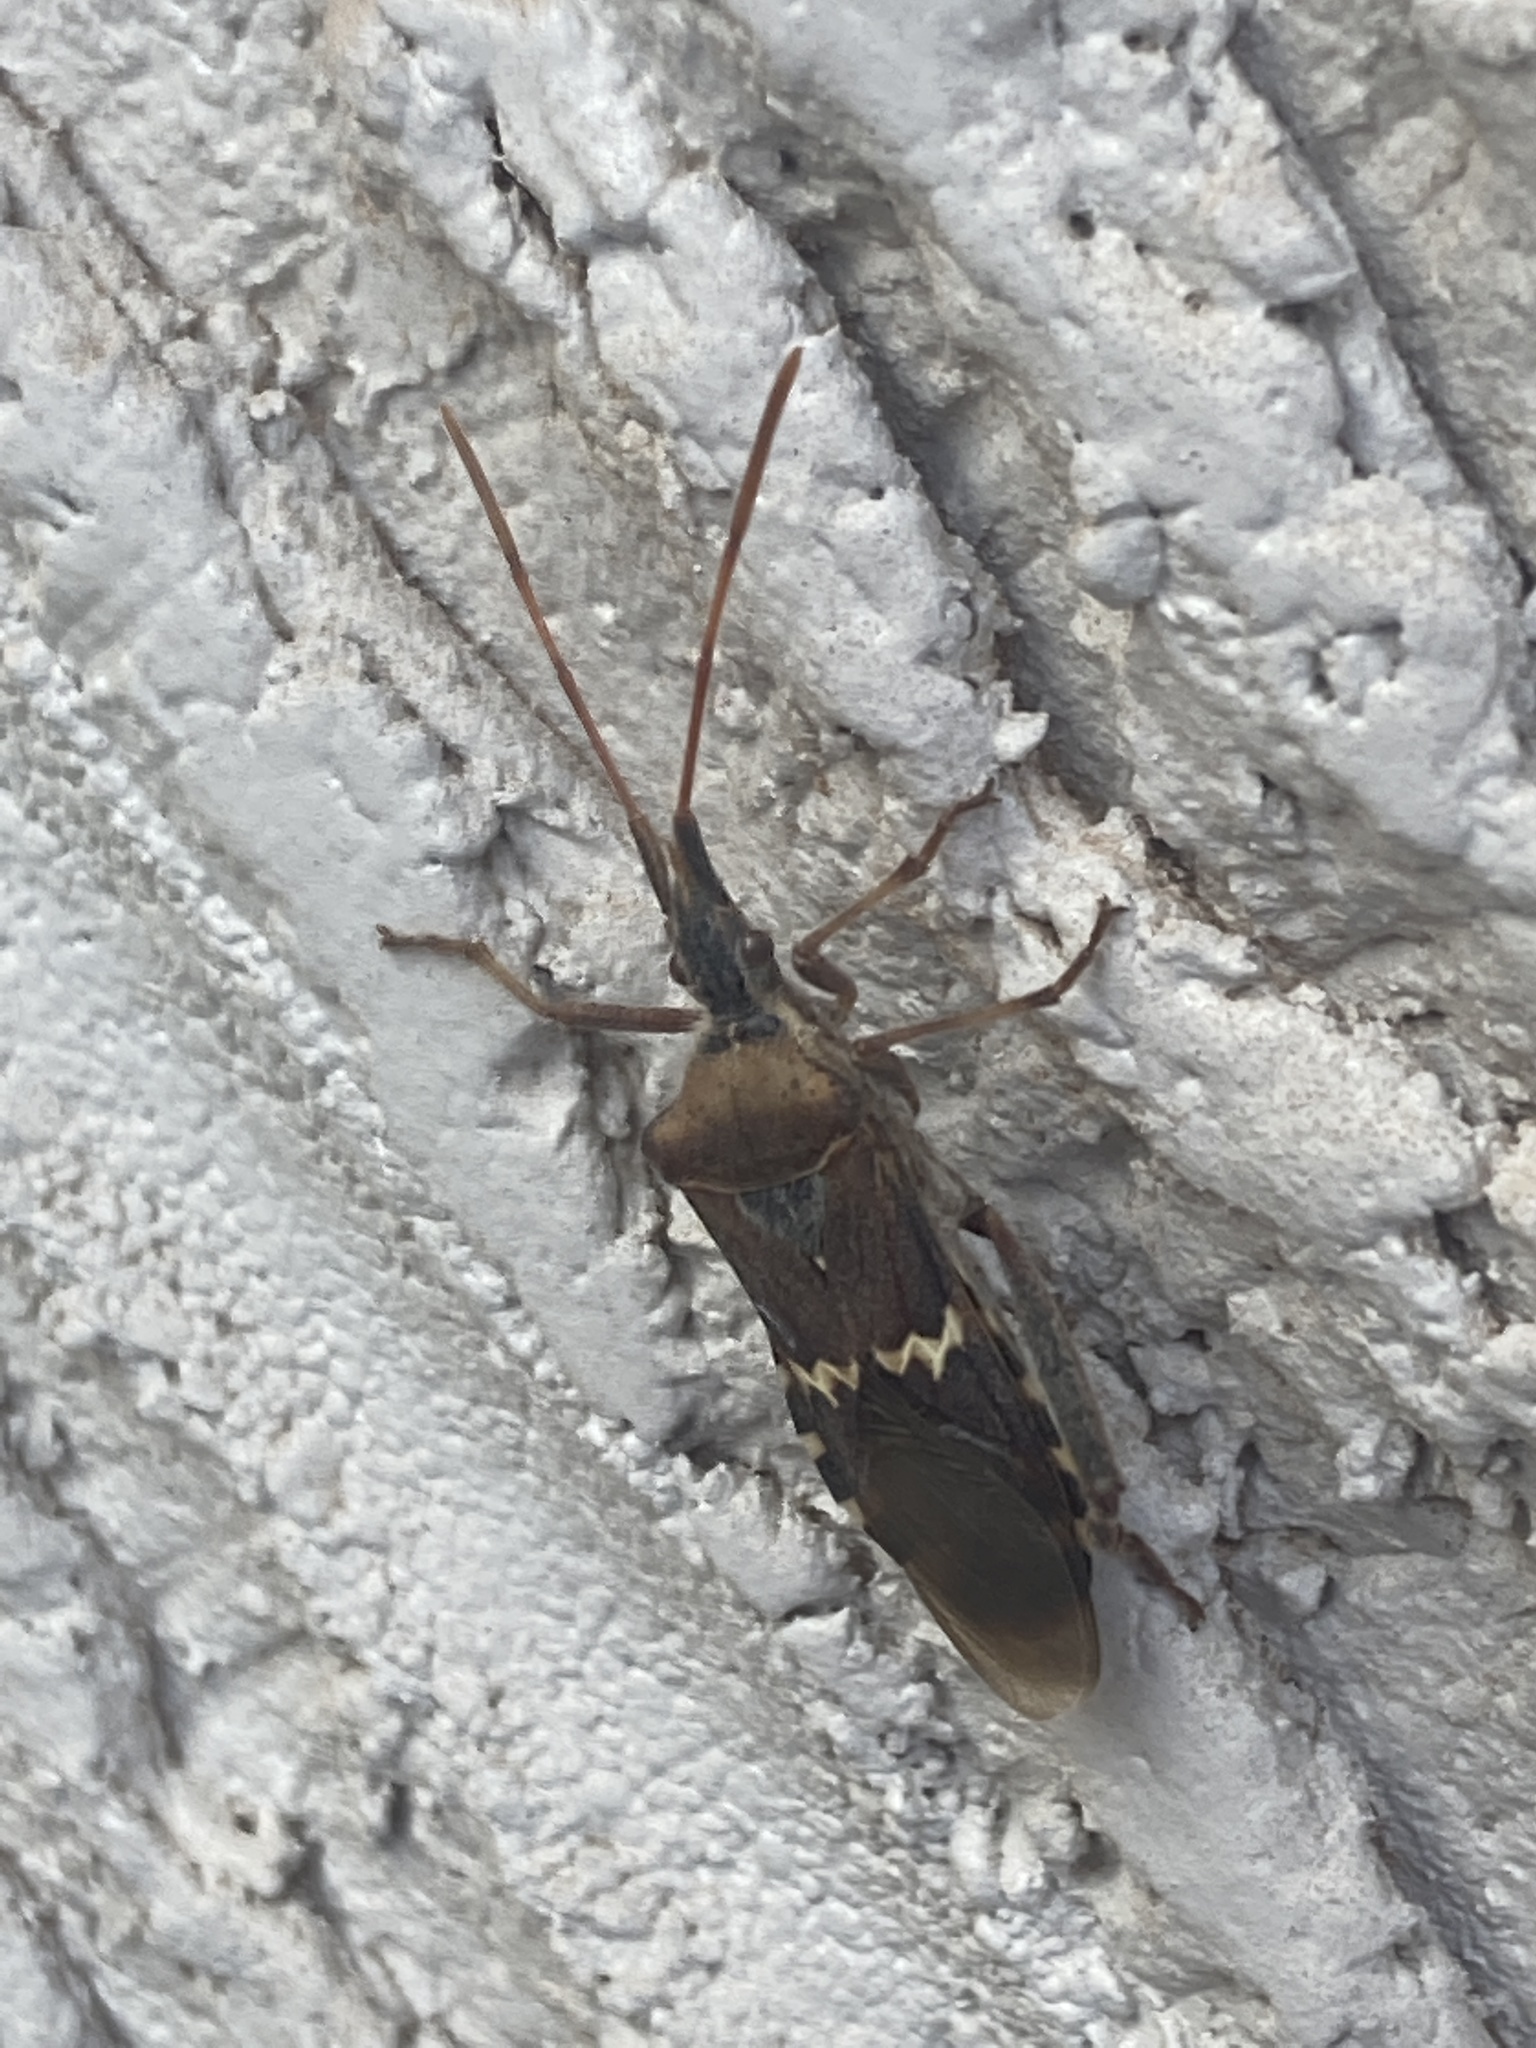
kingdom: Animalia
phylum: Arthropoda
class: Insecta
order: Hemiptera
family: Coreidae
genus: Leptoglossus
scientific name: Leptoglossus clypealis
